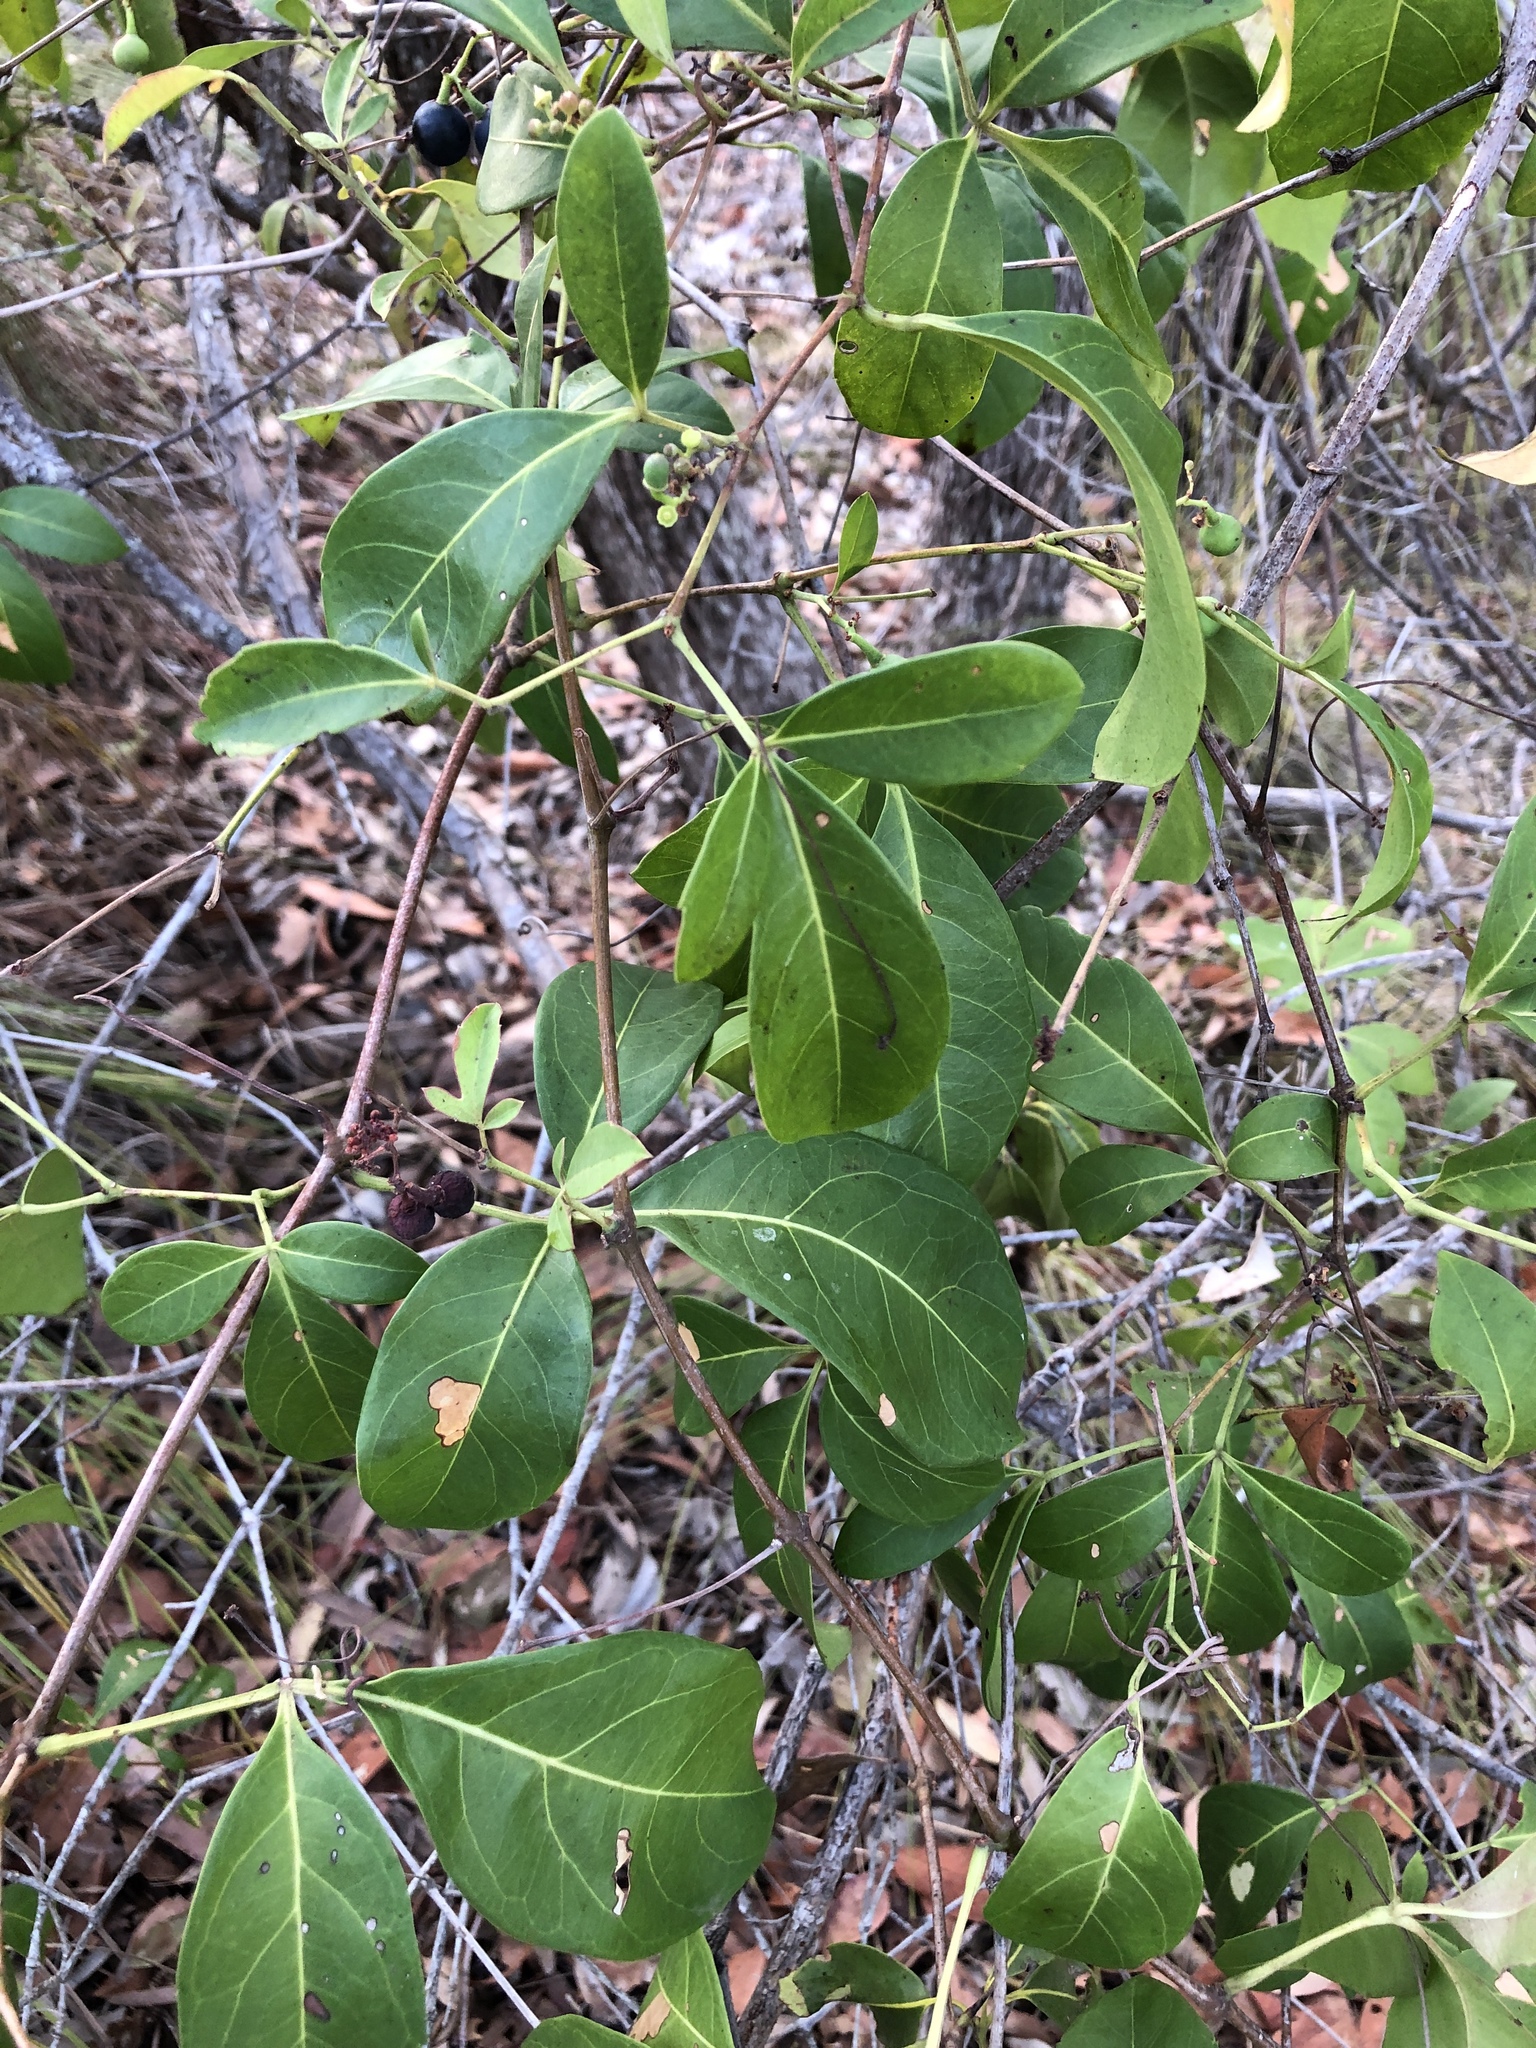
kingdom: Plantae
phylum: Tracheophyta
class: Magnoliopsida
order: Vitales
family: Vitaceae
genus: Clematicissus
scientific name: Clematicissus opaca
